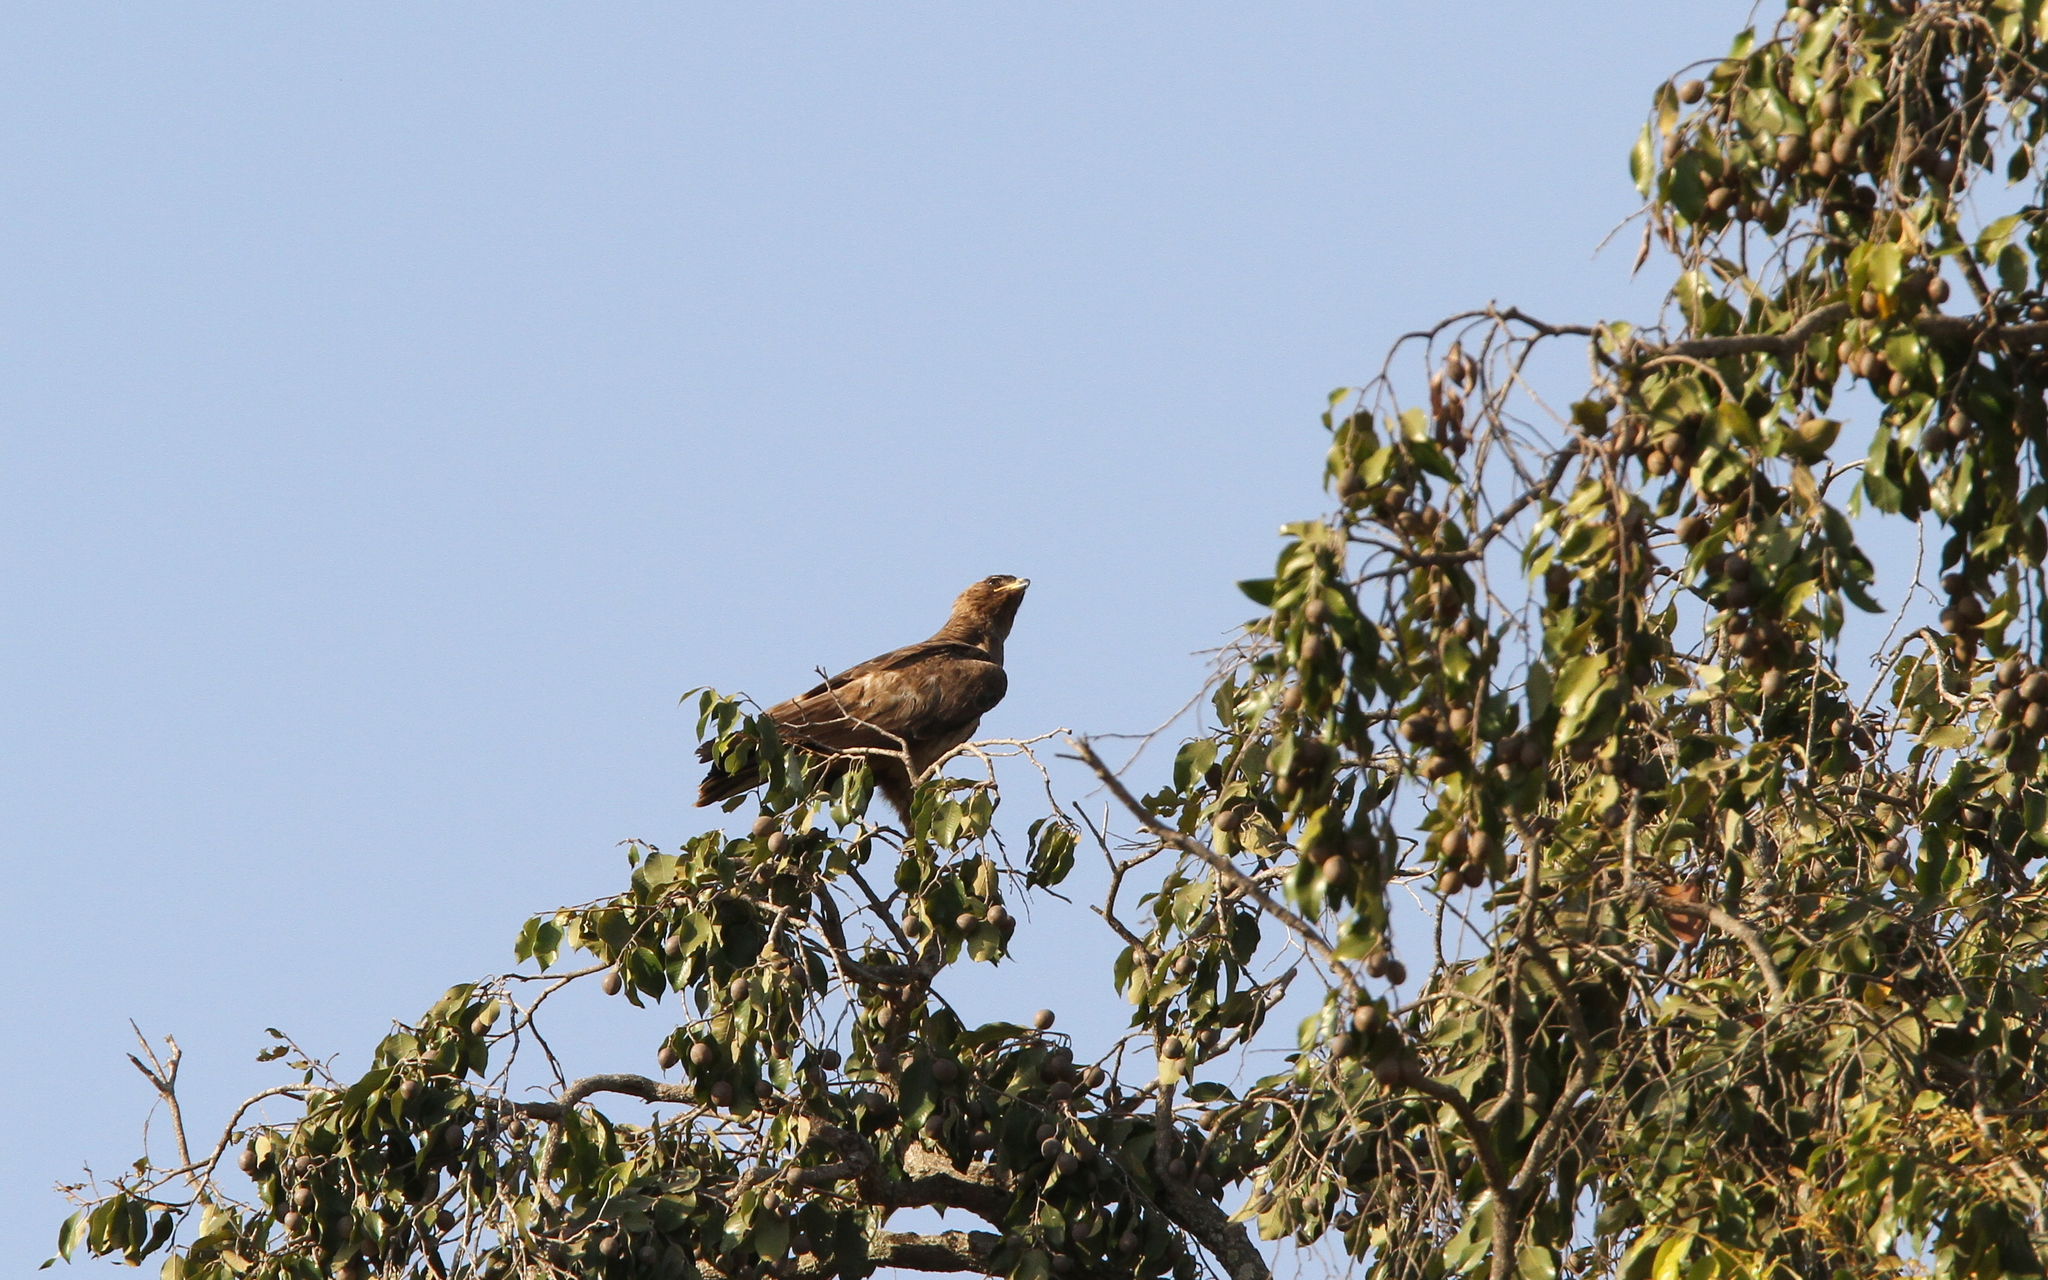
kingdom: Animalia
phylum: Chordata
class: Aves
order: Accipitriformes
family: Accipitridae
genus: Hieraaetus
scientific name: Hieraaetus wahlbergi
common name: Wahlberg's eagle
